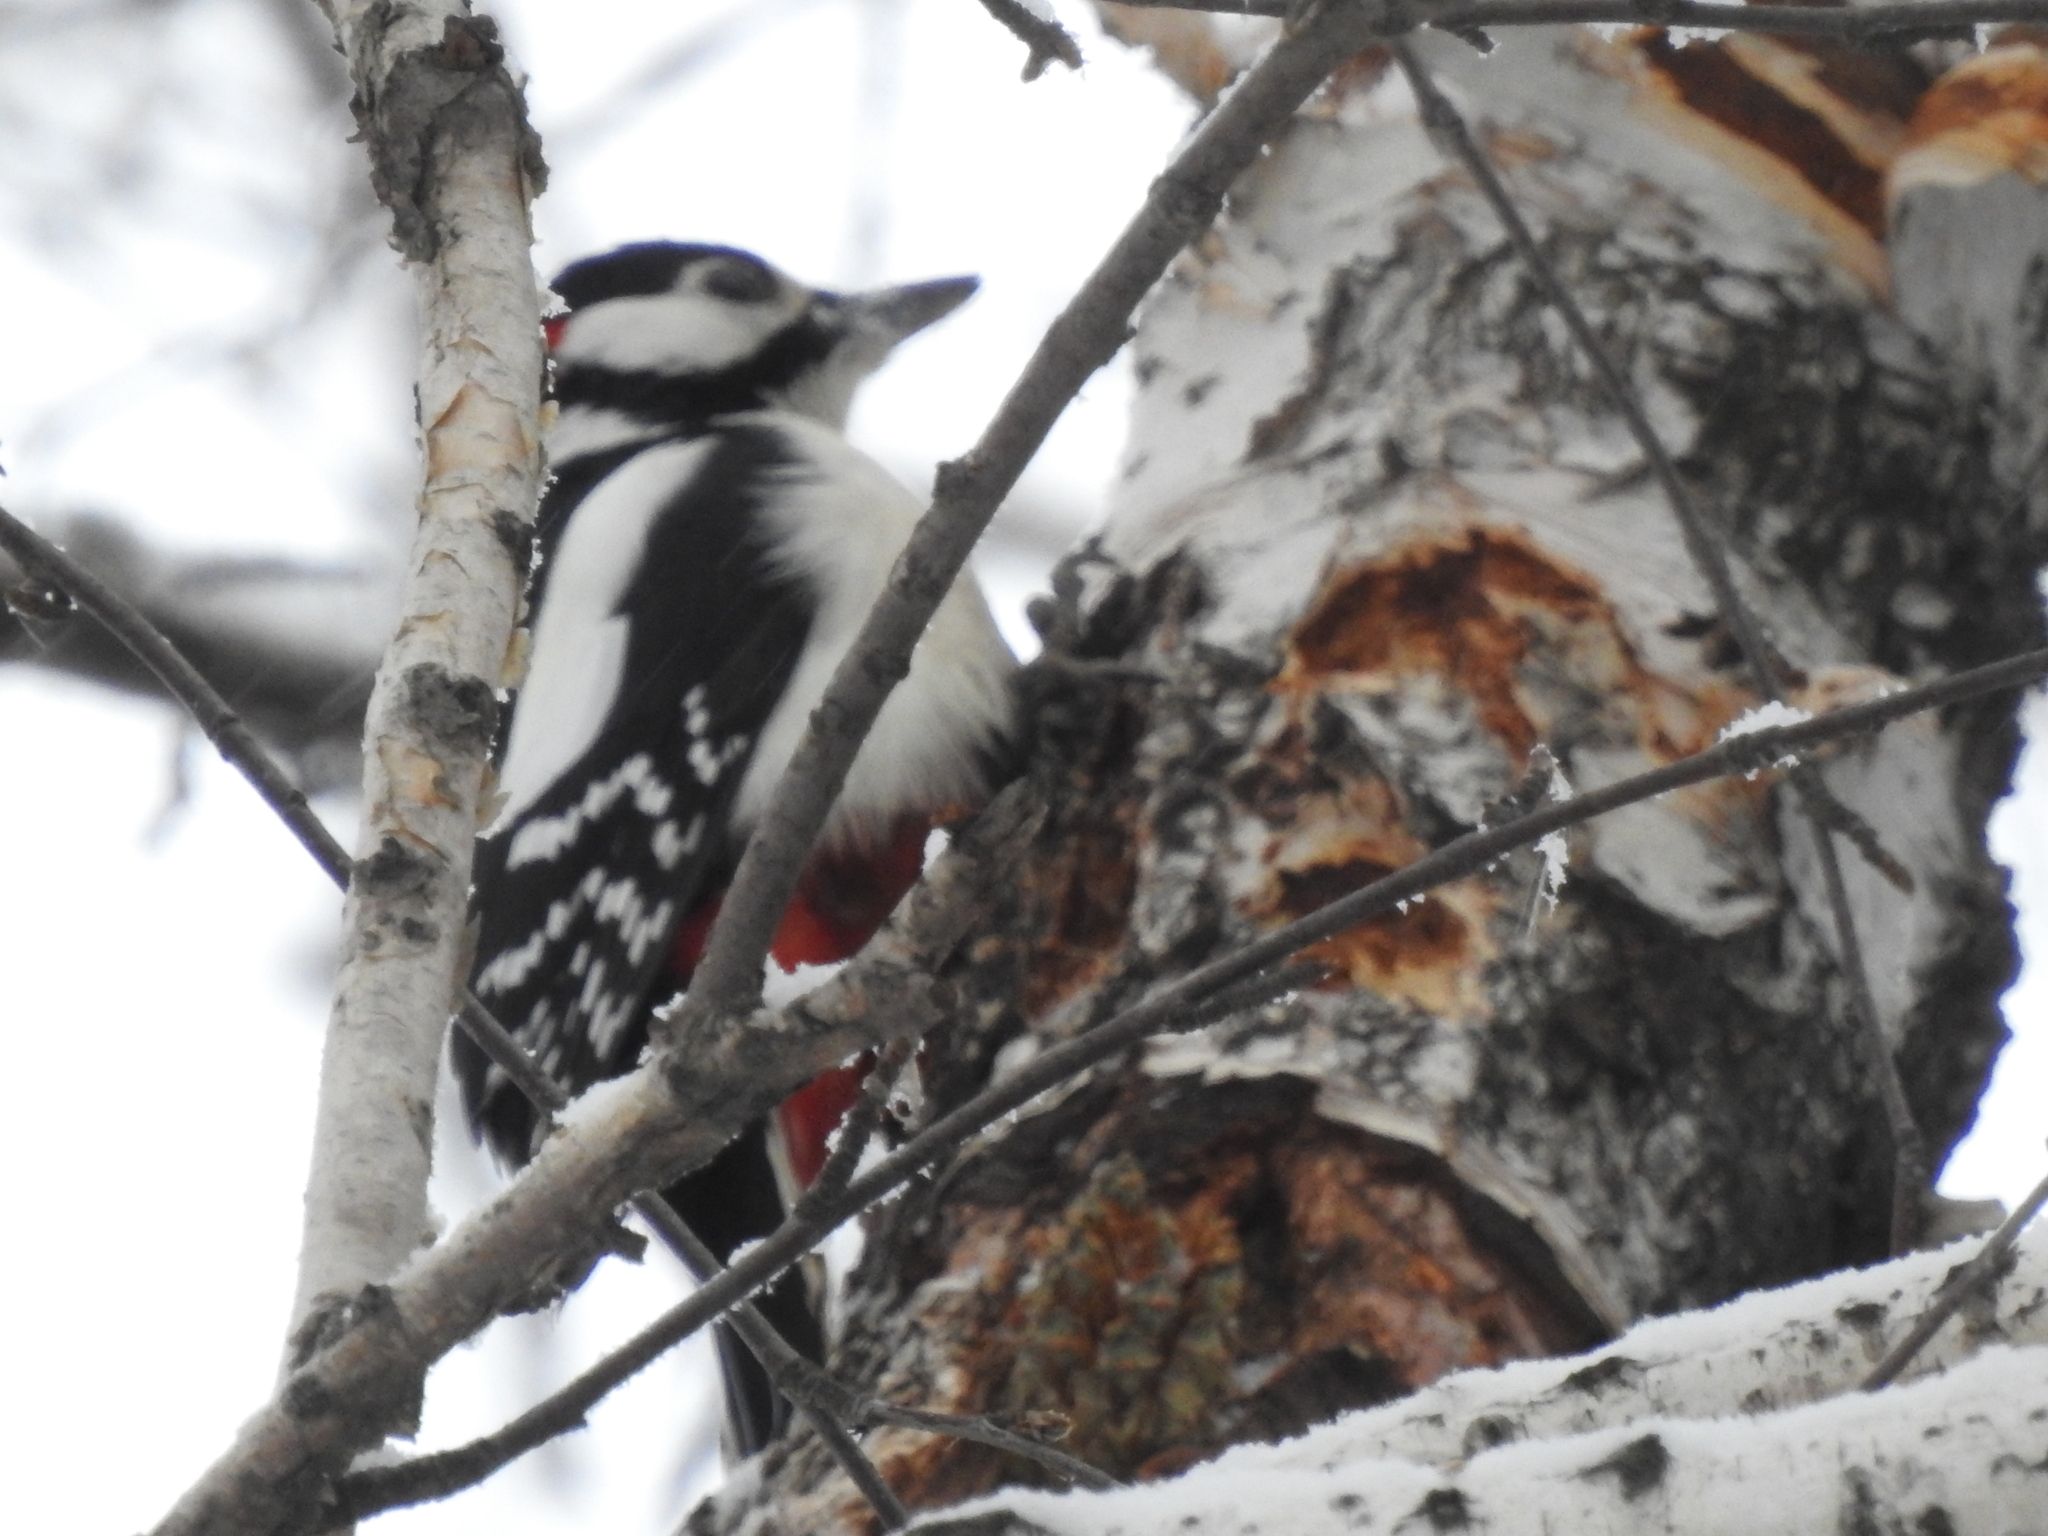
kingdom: Animalia
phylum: Chordata
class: Aves
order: Piciformes
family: Picidae
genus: Dendrocopos
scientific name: Dendrocopos major
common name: Great spotted woodpecker
